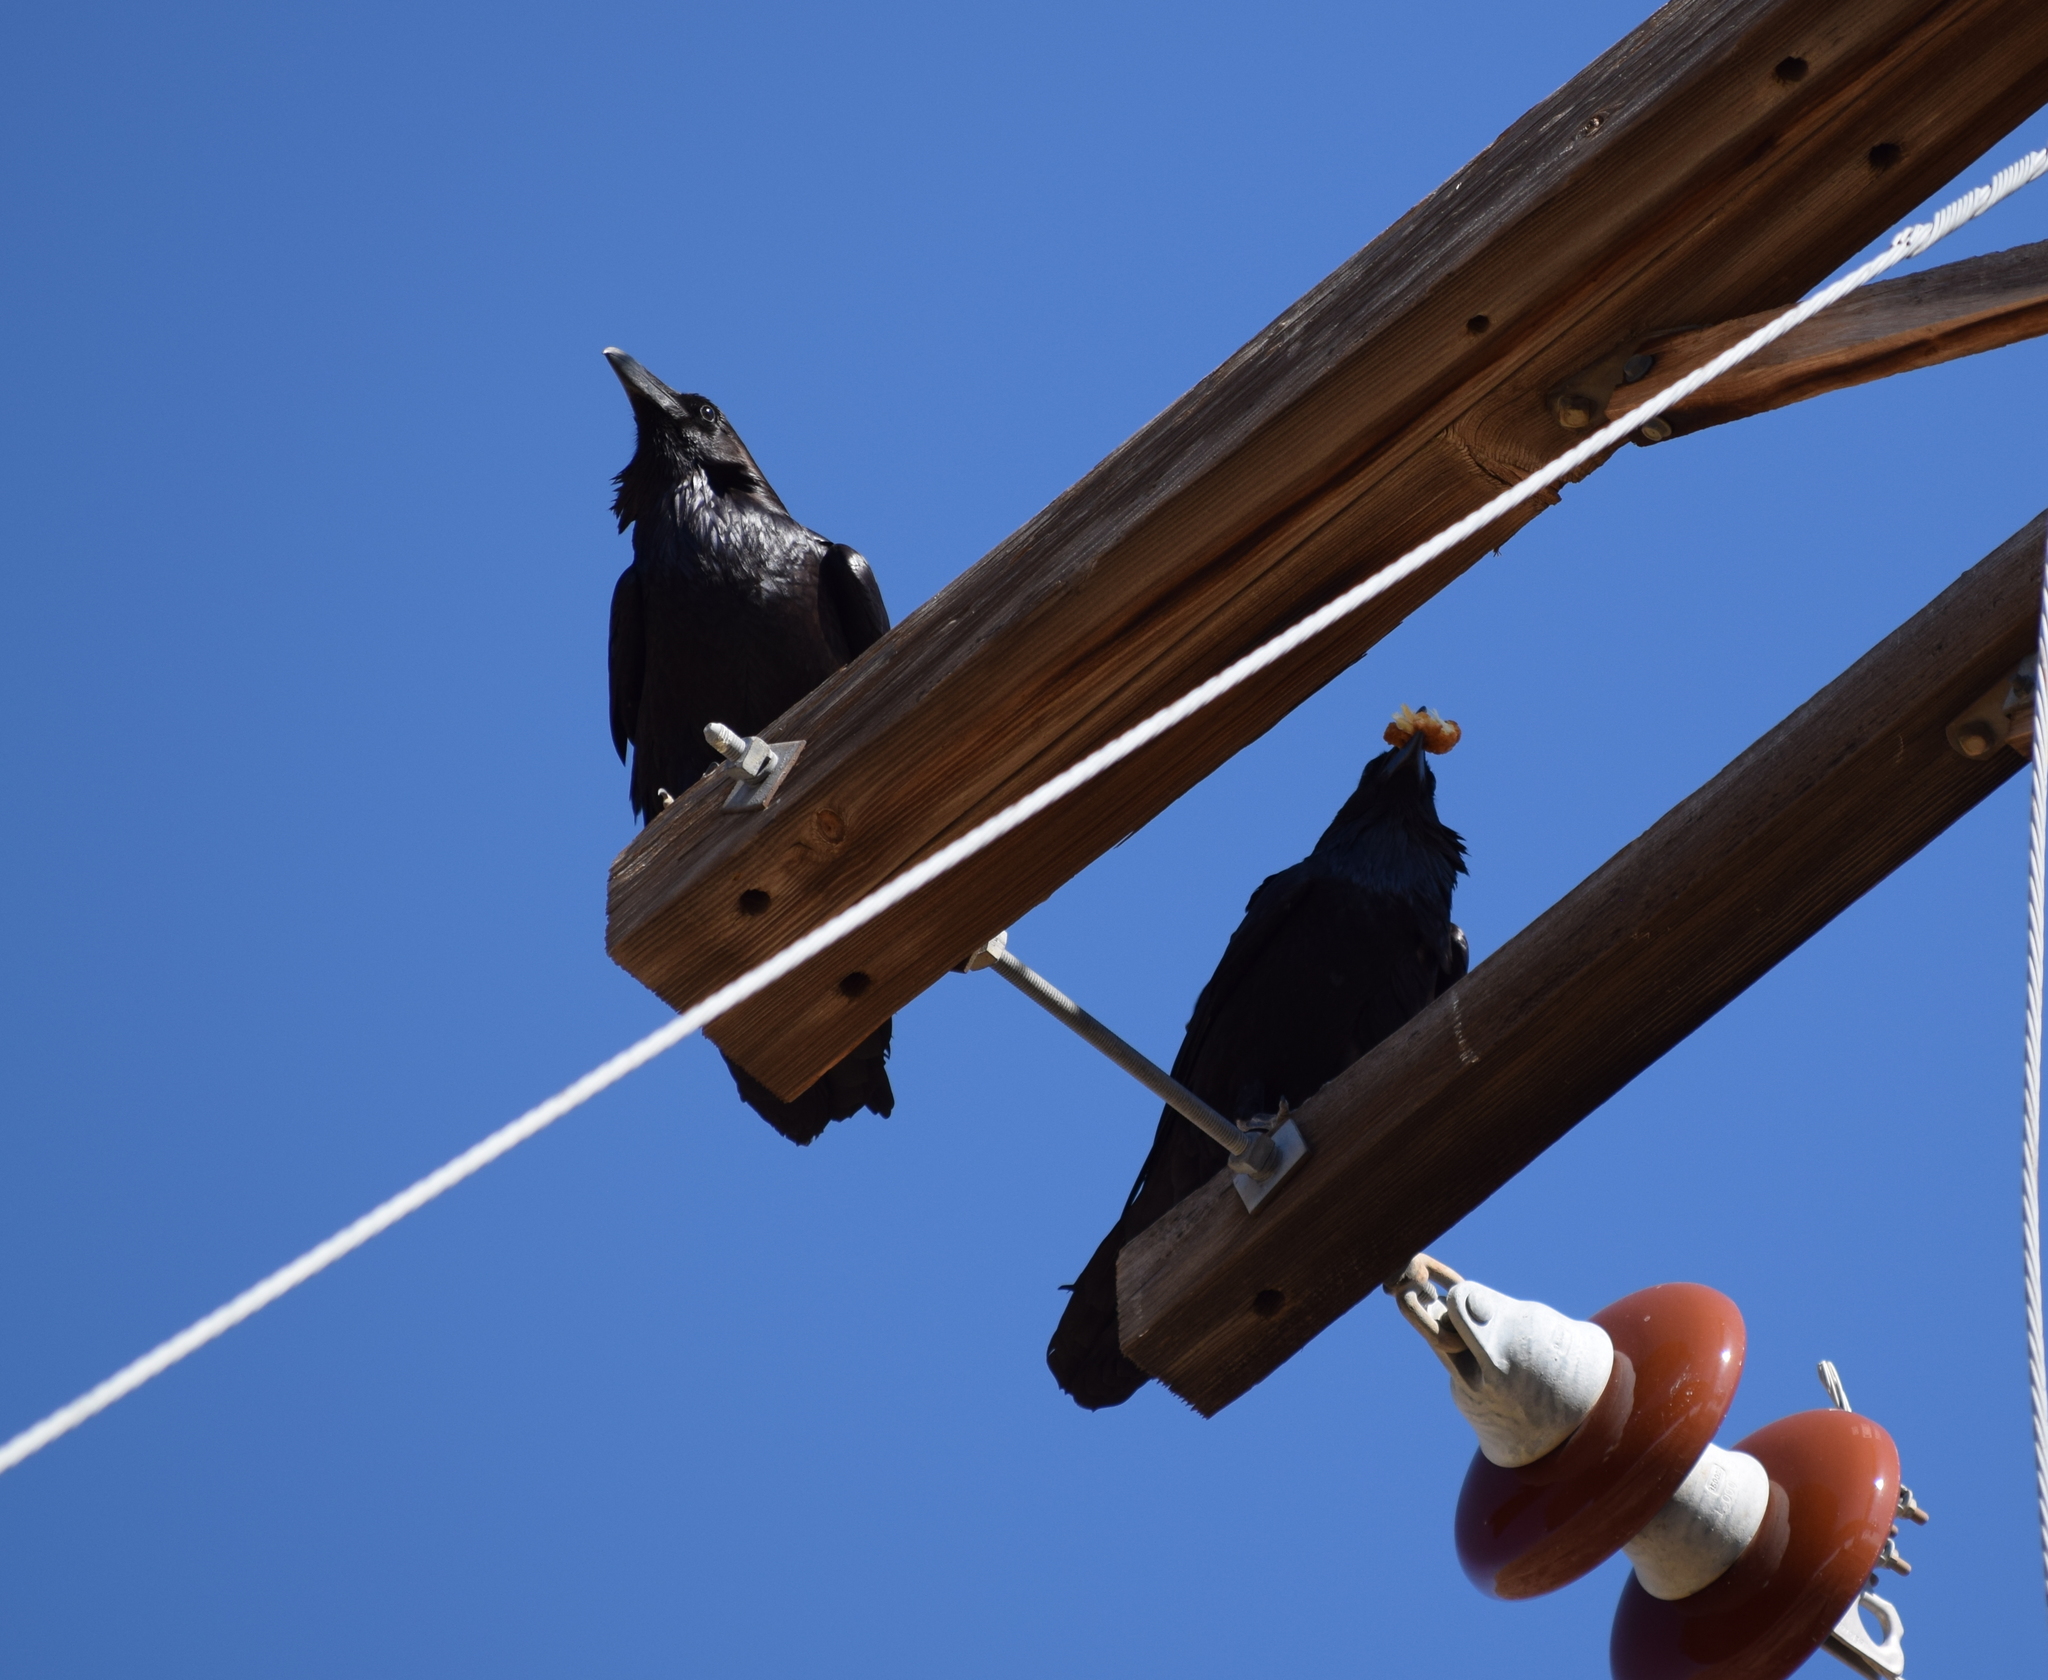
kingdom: Animalia
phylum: Chordata
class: Aves
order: Passeriformes
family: Corvidae
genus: Corvus
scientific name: Corvus corax
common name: Common raven
